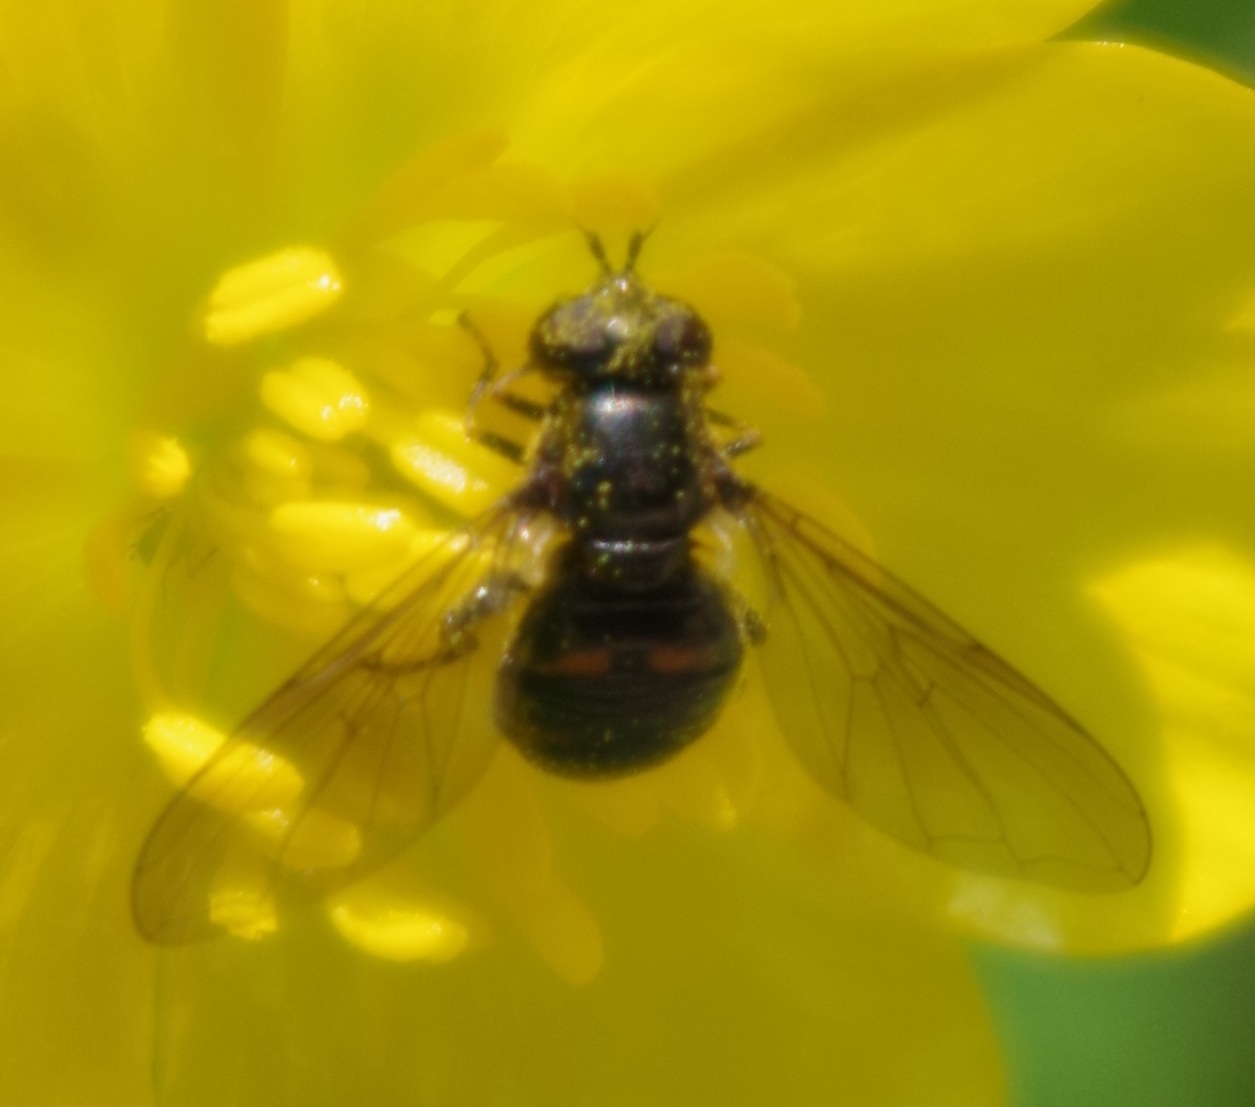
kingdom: Animalia
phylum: Arthropoda
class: Insecta
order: Diptera
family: Syrphidae
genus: Pipiza
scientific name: Pipiza quadrimaculata
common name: Four-spotted pipiza
